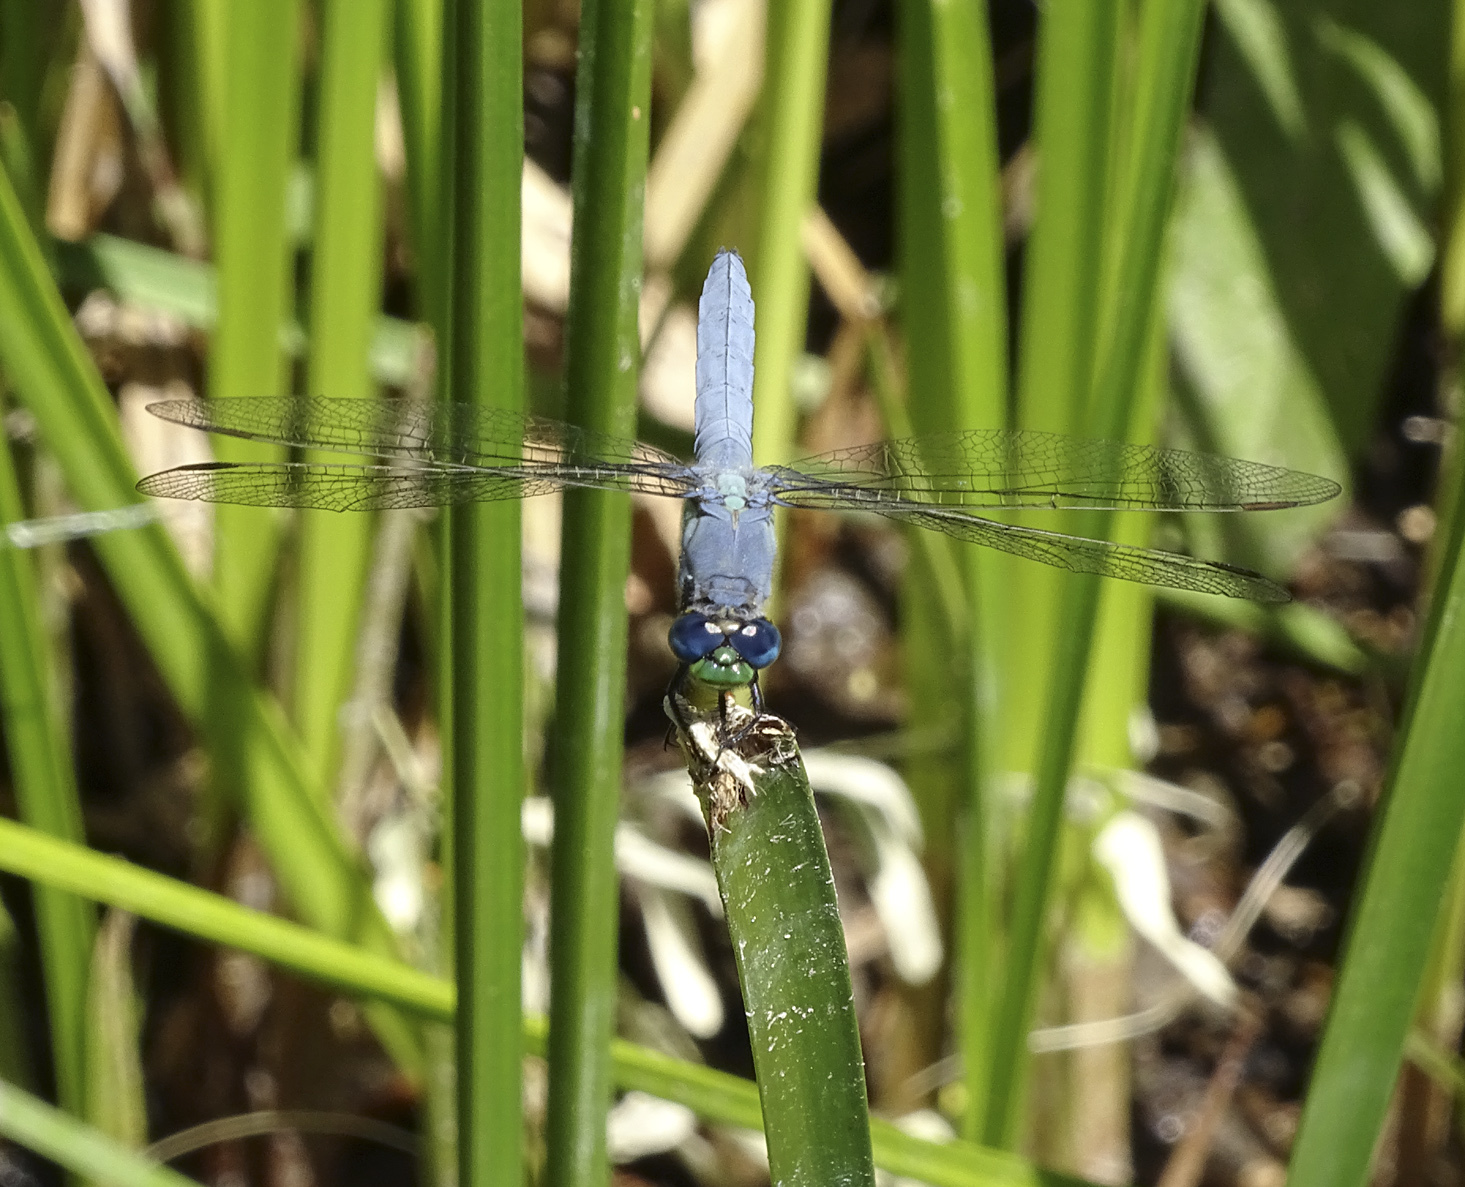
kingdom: Animalia
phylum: Arthropoda
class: Insecta
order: Odonata
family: Libellulidae
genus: Erythemis
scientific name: Erythemis collocata
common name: Western pondhawk
